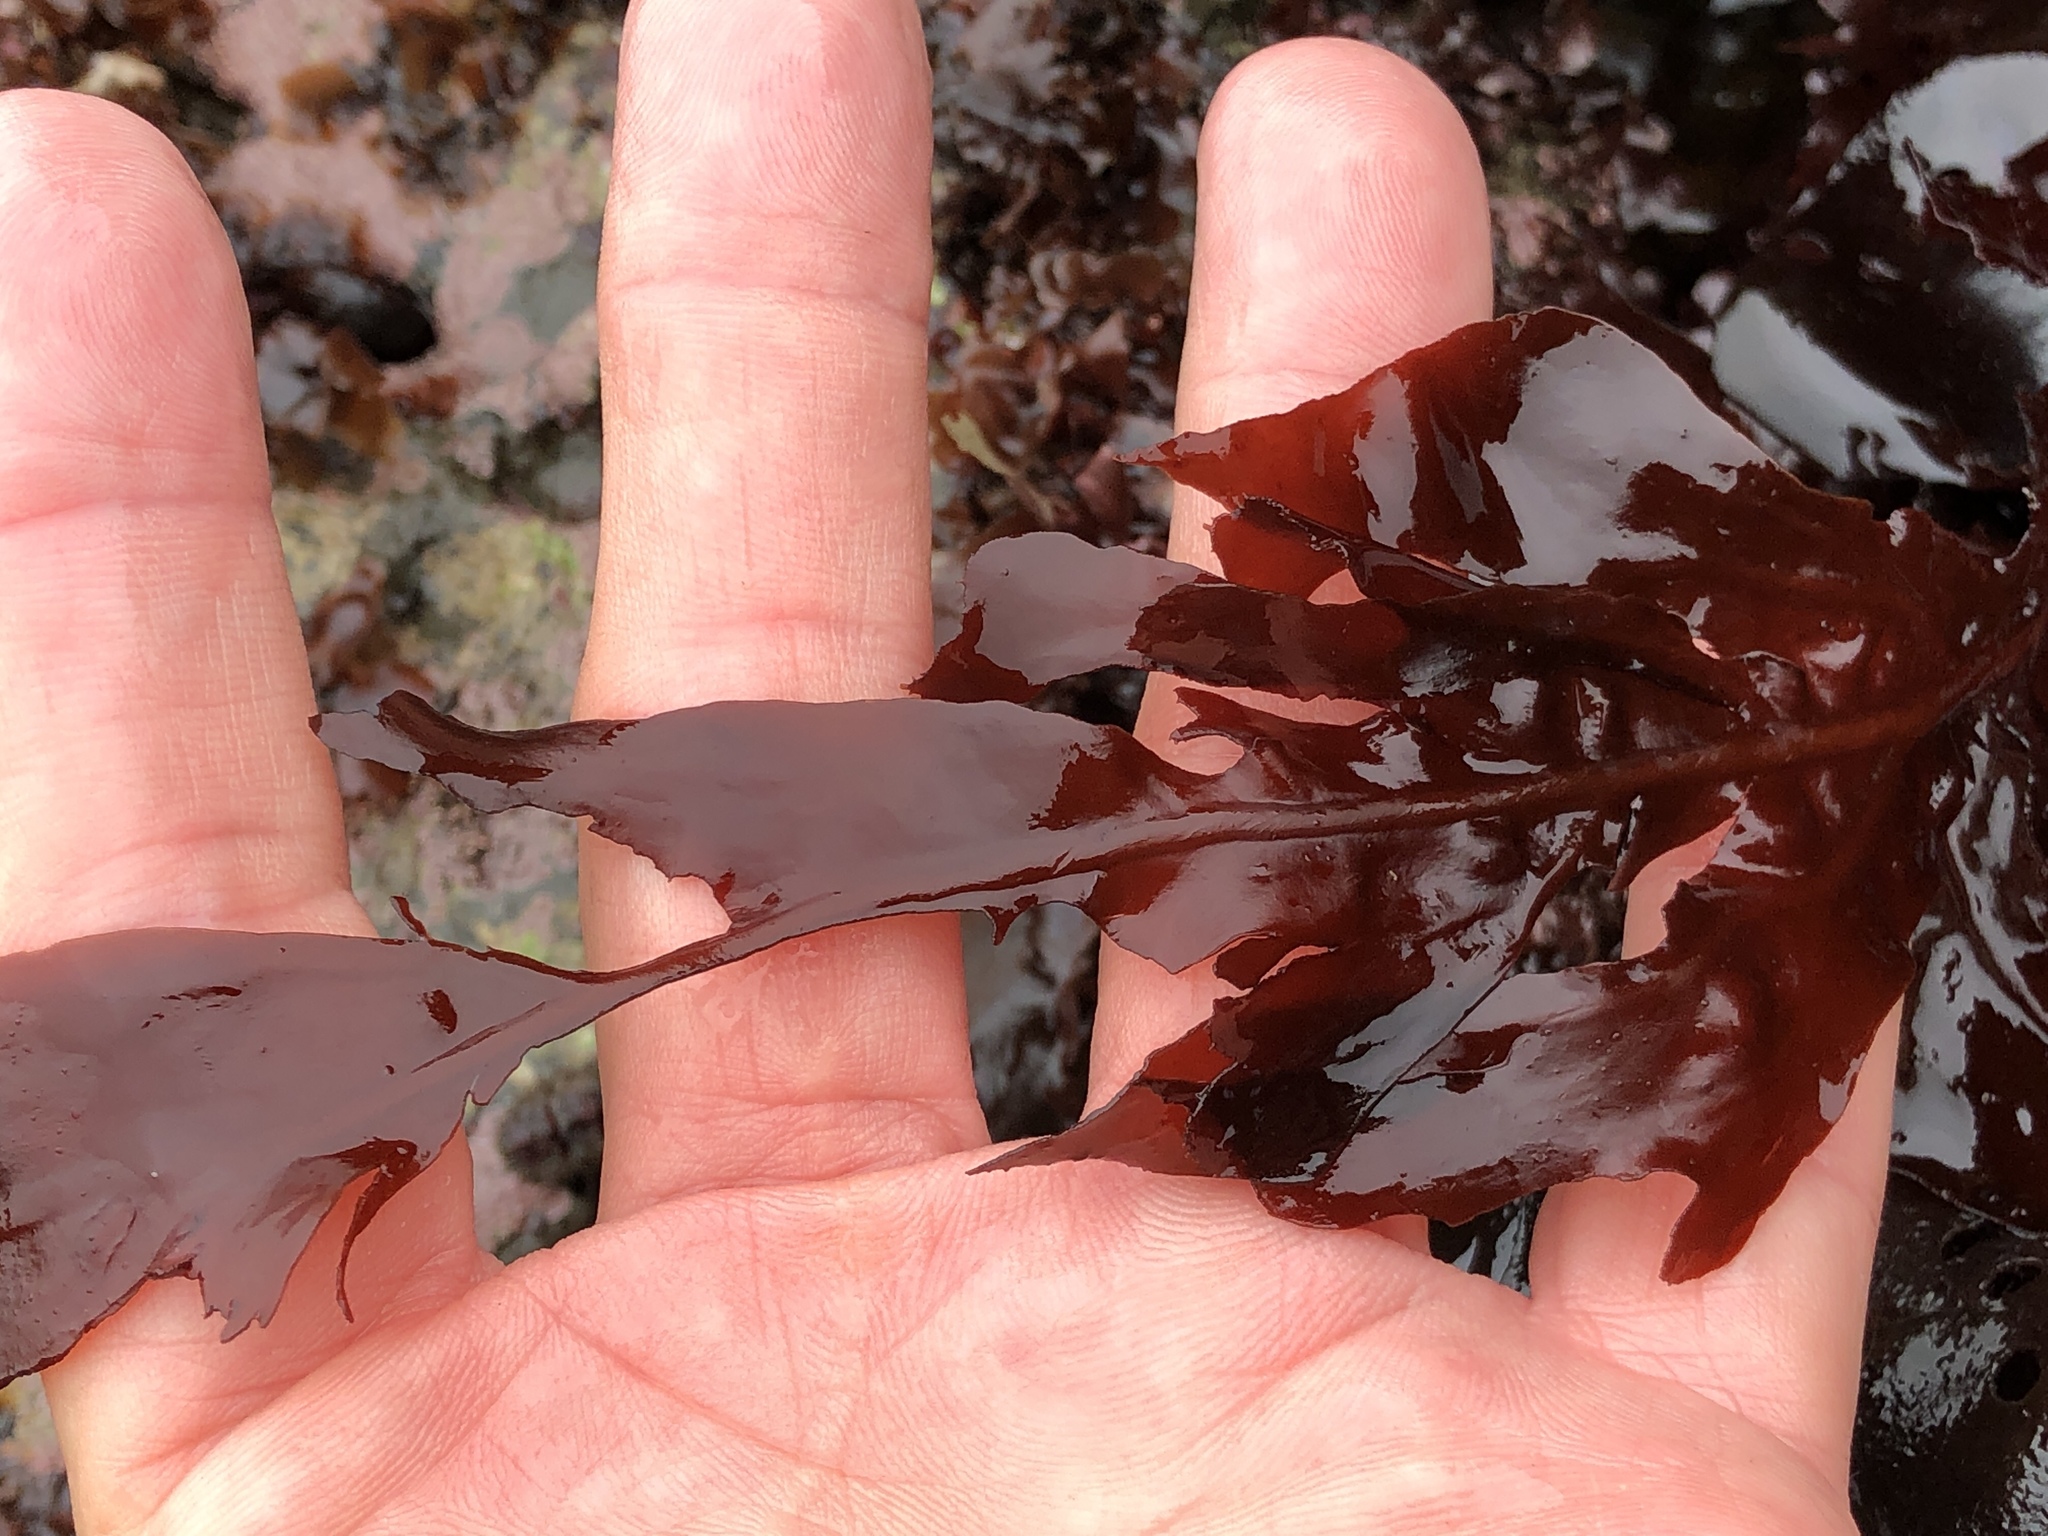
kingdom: Plantae
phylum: Rhodophyta
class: Florideophyceae
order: Gigartinales
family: Kallymeniaceae
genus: Erythrophyllum
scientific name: Erythrophyllum delesserioides
